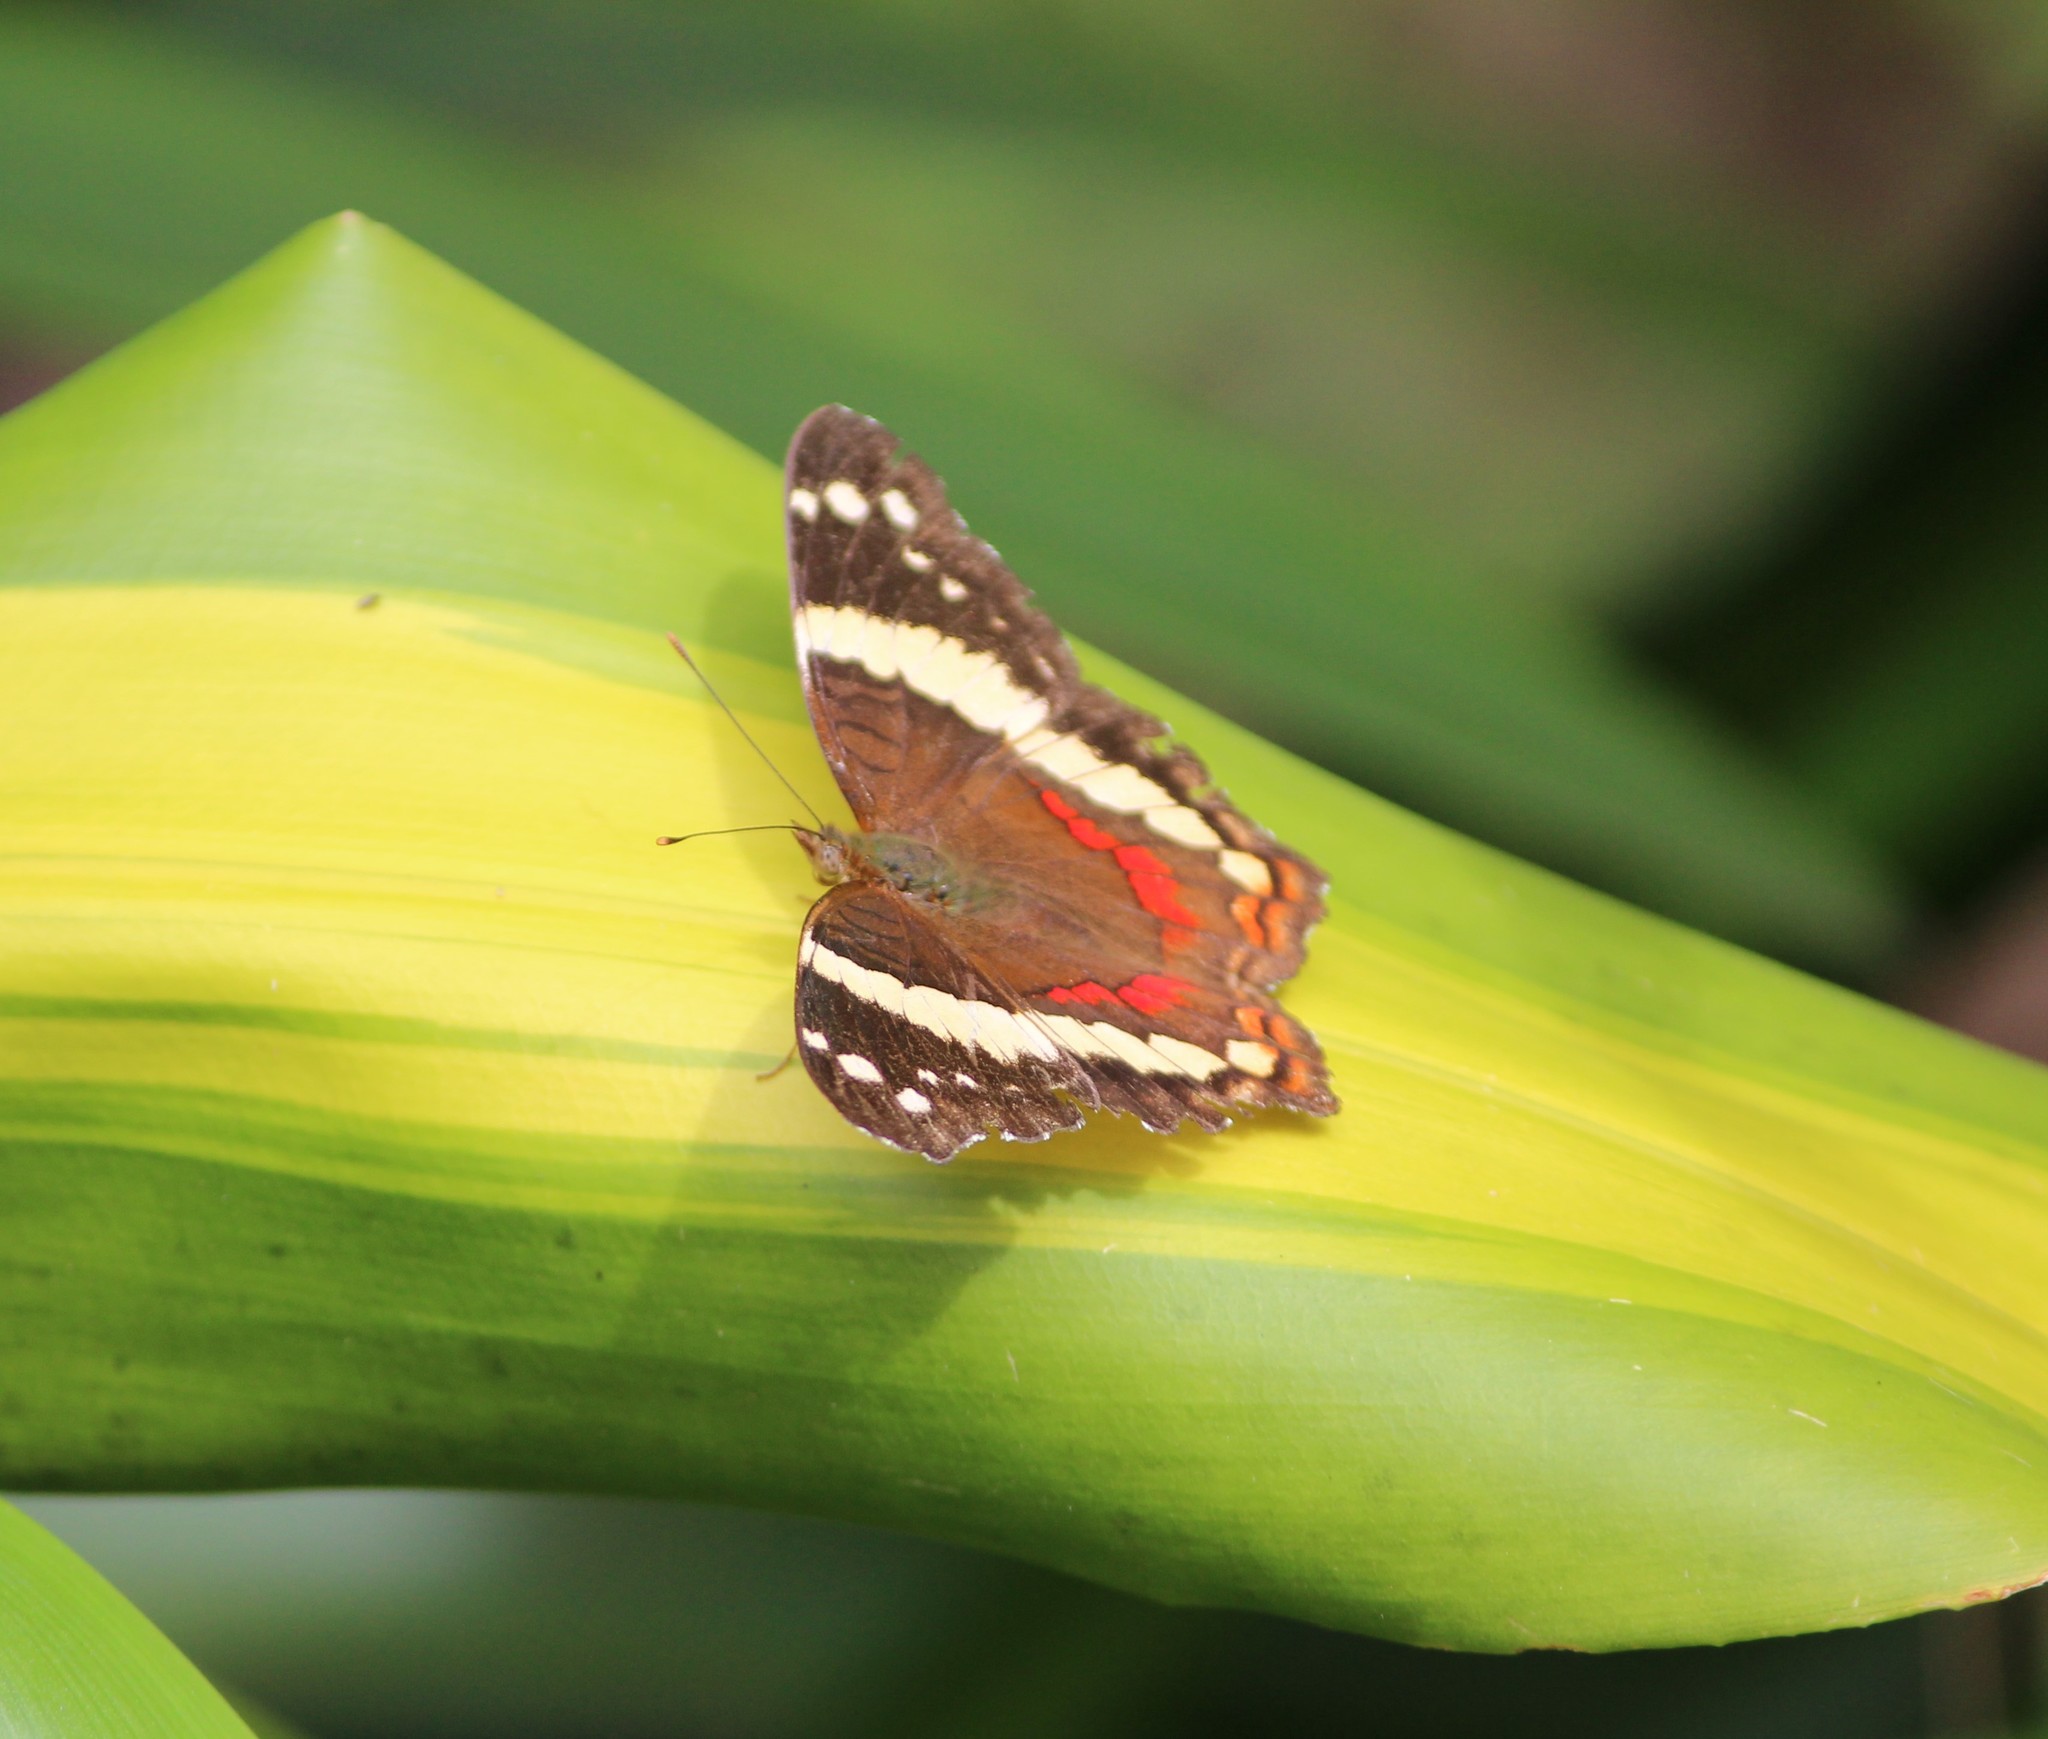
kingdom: Animalia
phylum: Arthropoda
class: Insecta
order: Lepidoptera
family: Nymphalidae
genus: Anartia
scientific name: Anartia fatima
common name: Banded peacock
